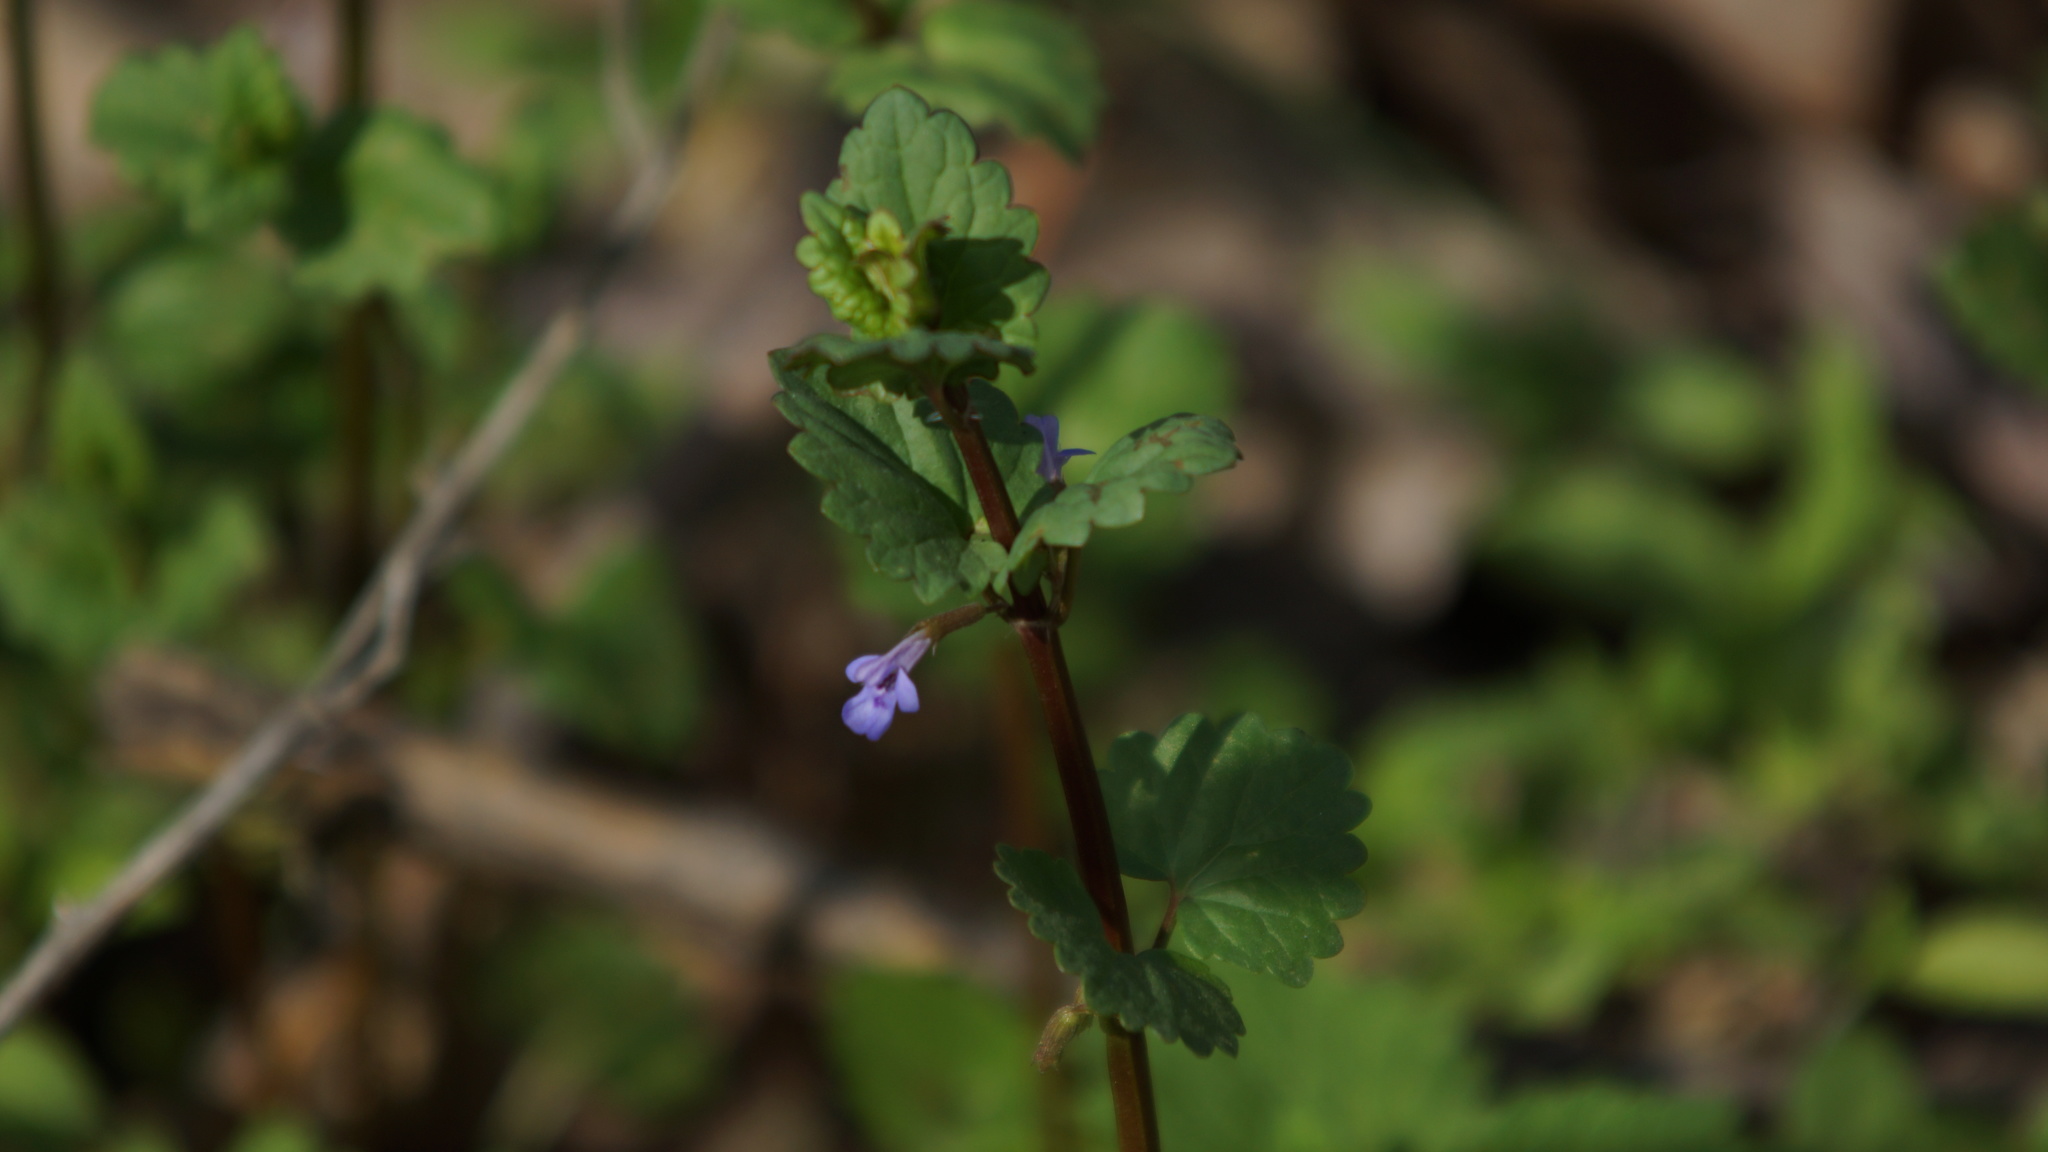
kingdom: Plantae
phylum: Tracheophyta
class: Magnoliopsida
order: Lamiales
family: Lamiaceae
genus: Glechoma
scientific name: Glechoma hederacea
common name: Ground ivy
